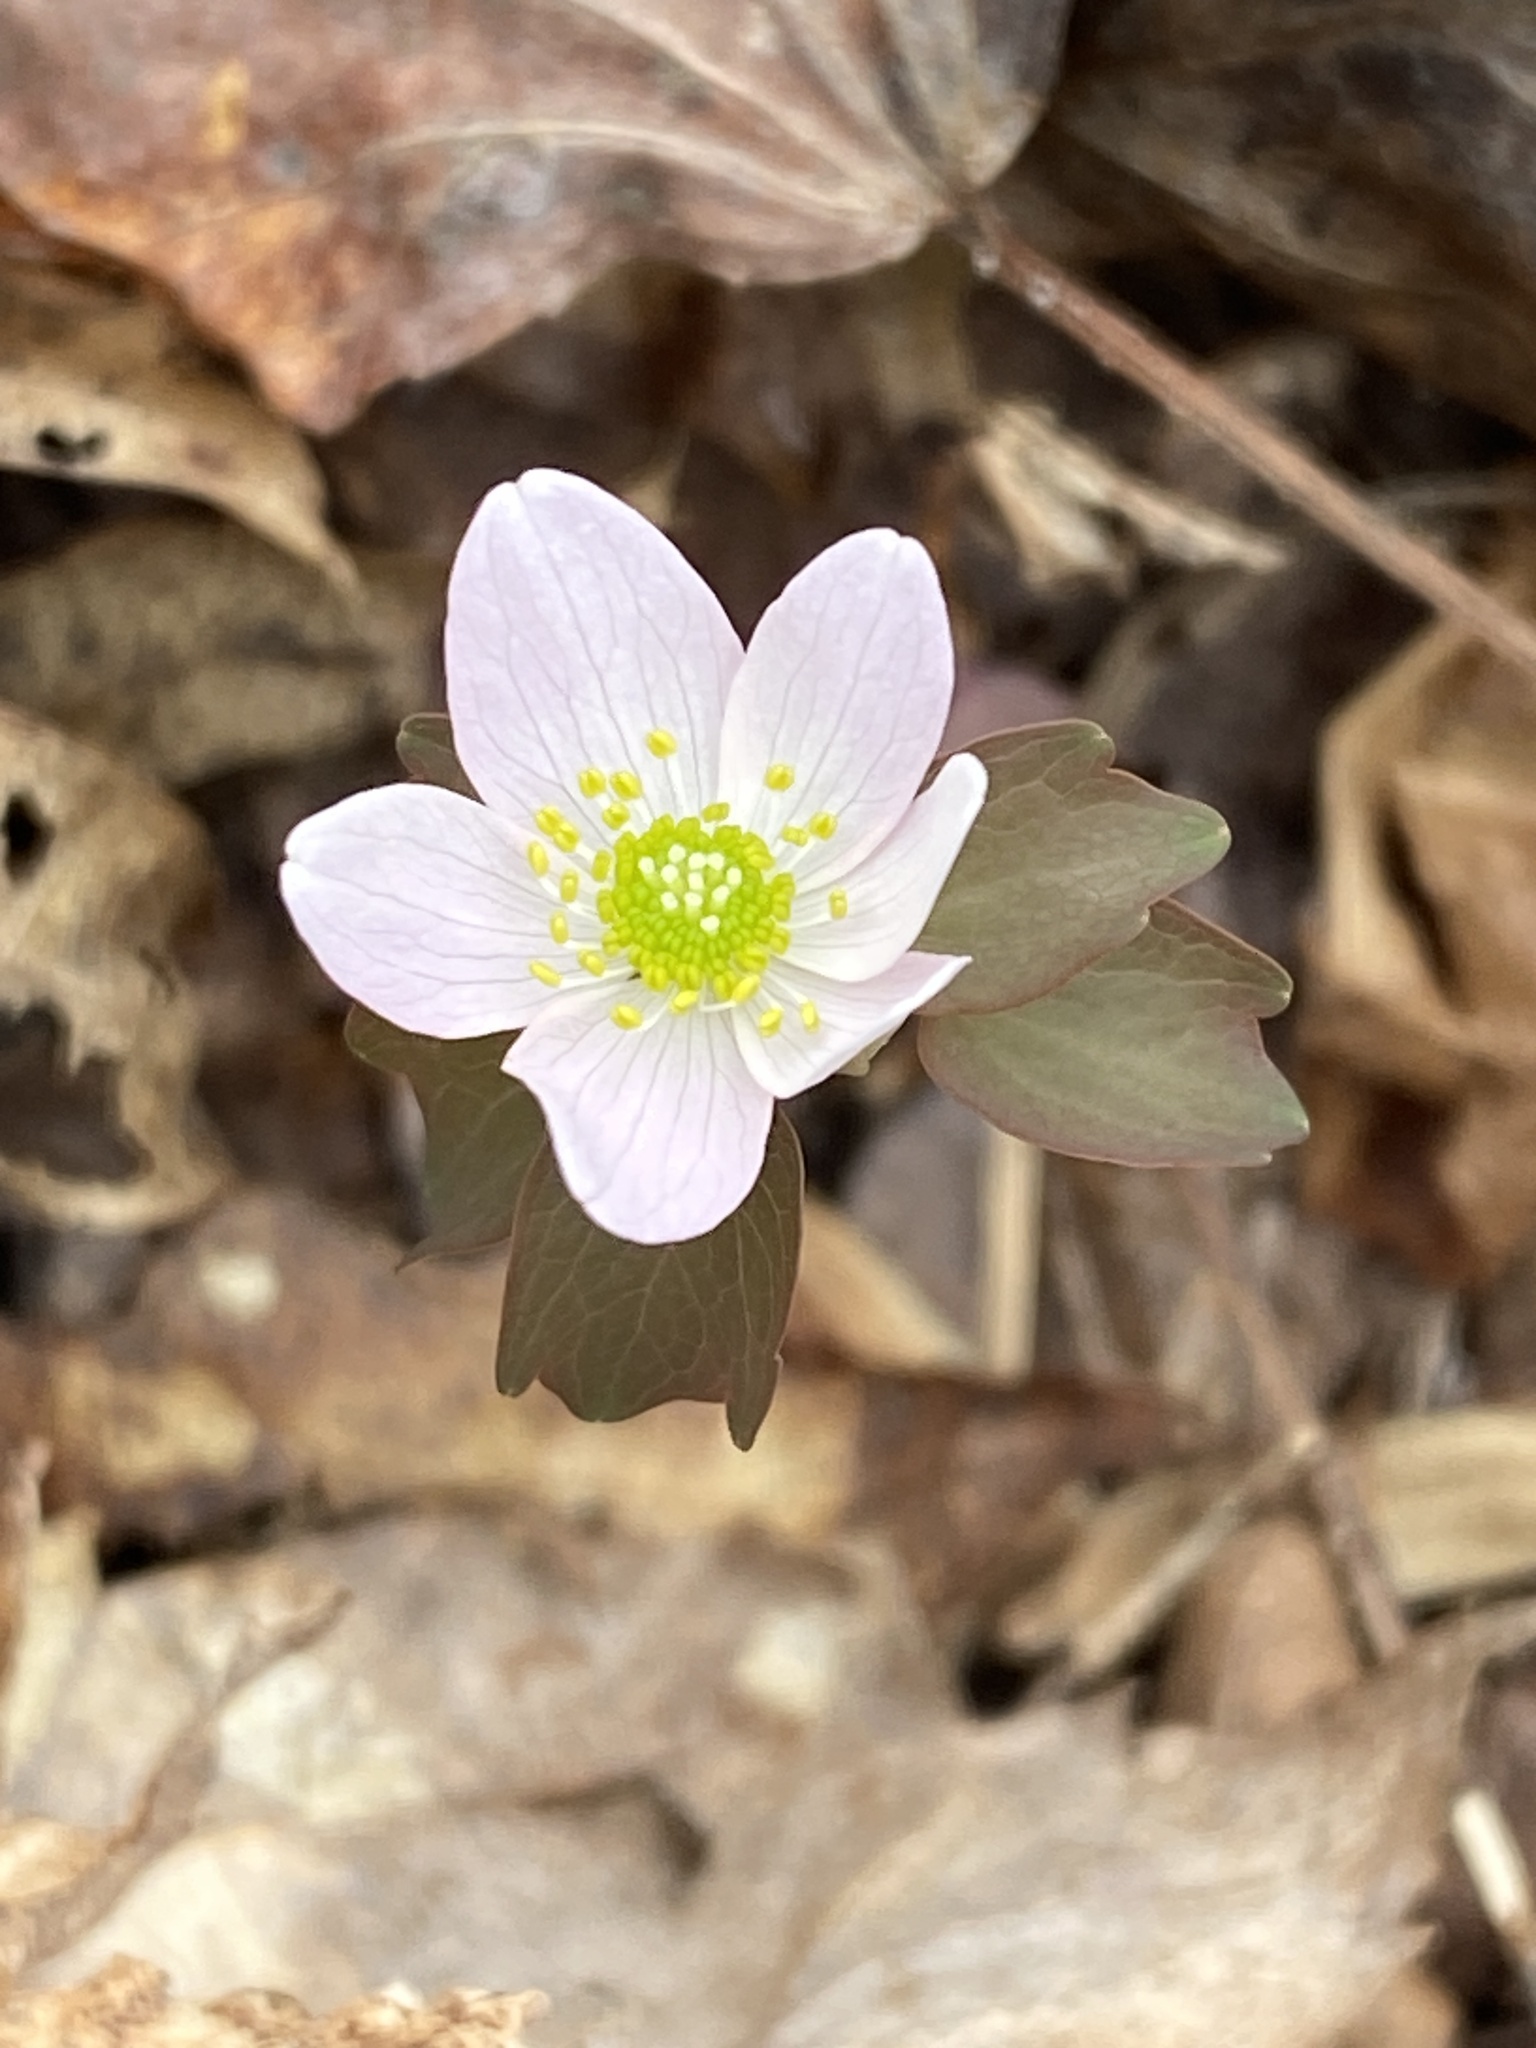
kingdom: Plantae
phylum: Tracheophyta
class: Magnoliopsida
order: Ranunculales
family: Ranunculaceae
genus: Thalictrum
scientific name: Thalictrum thalictroides
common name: Rue-anemone
